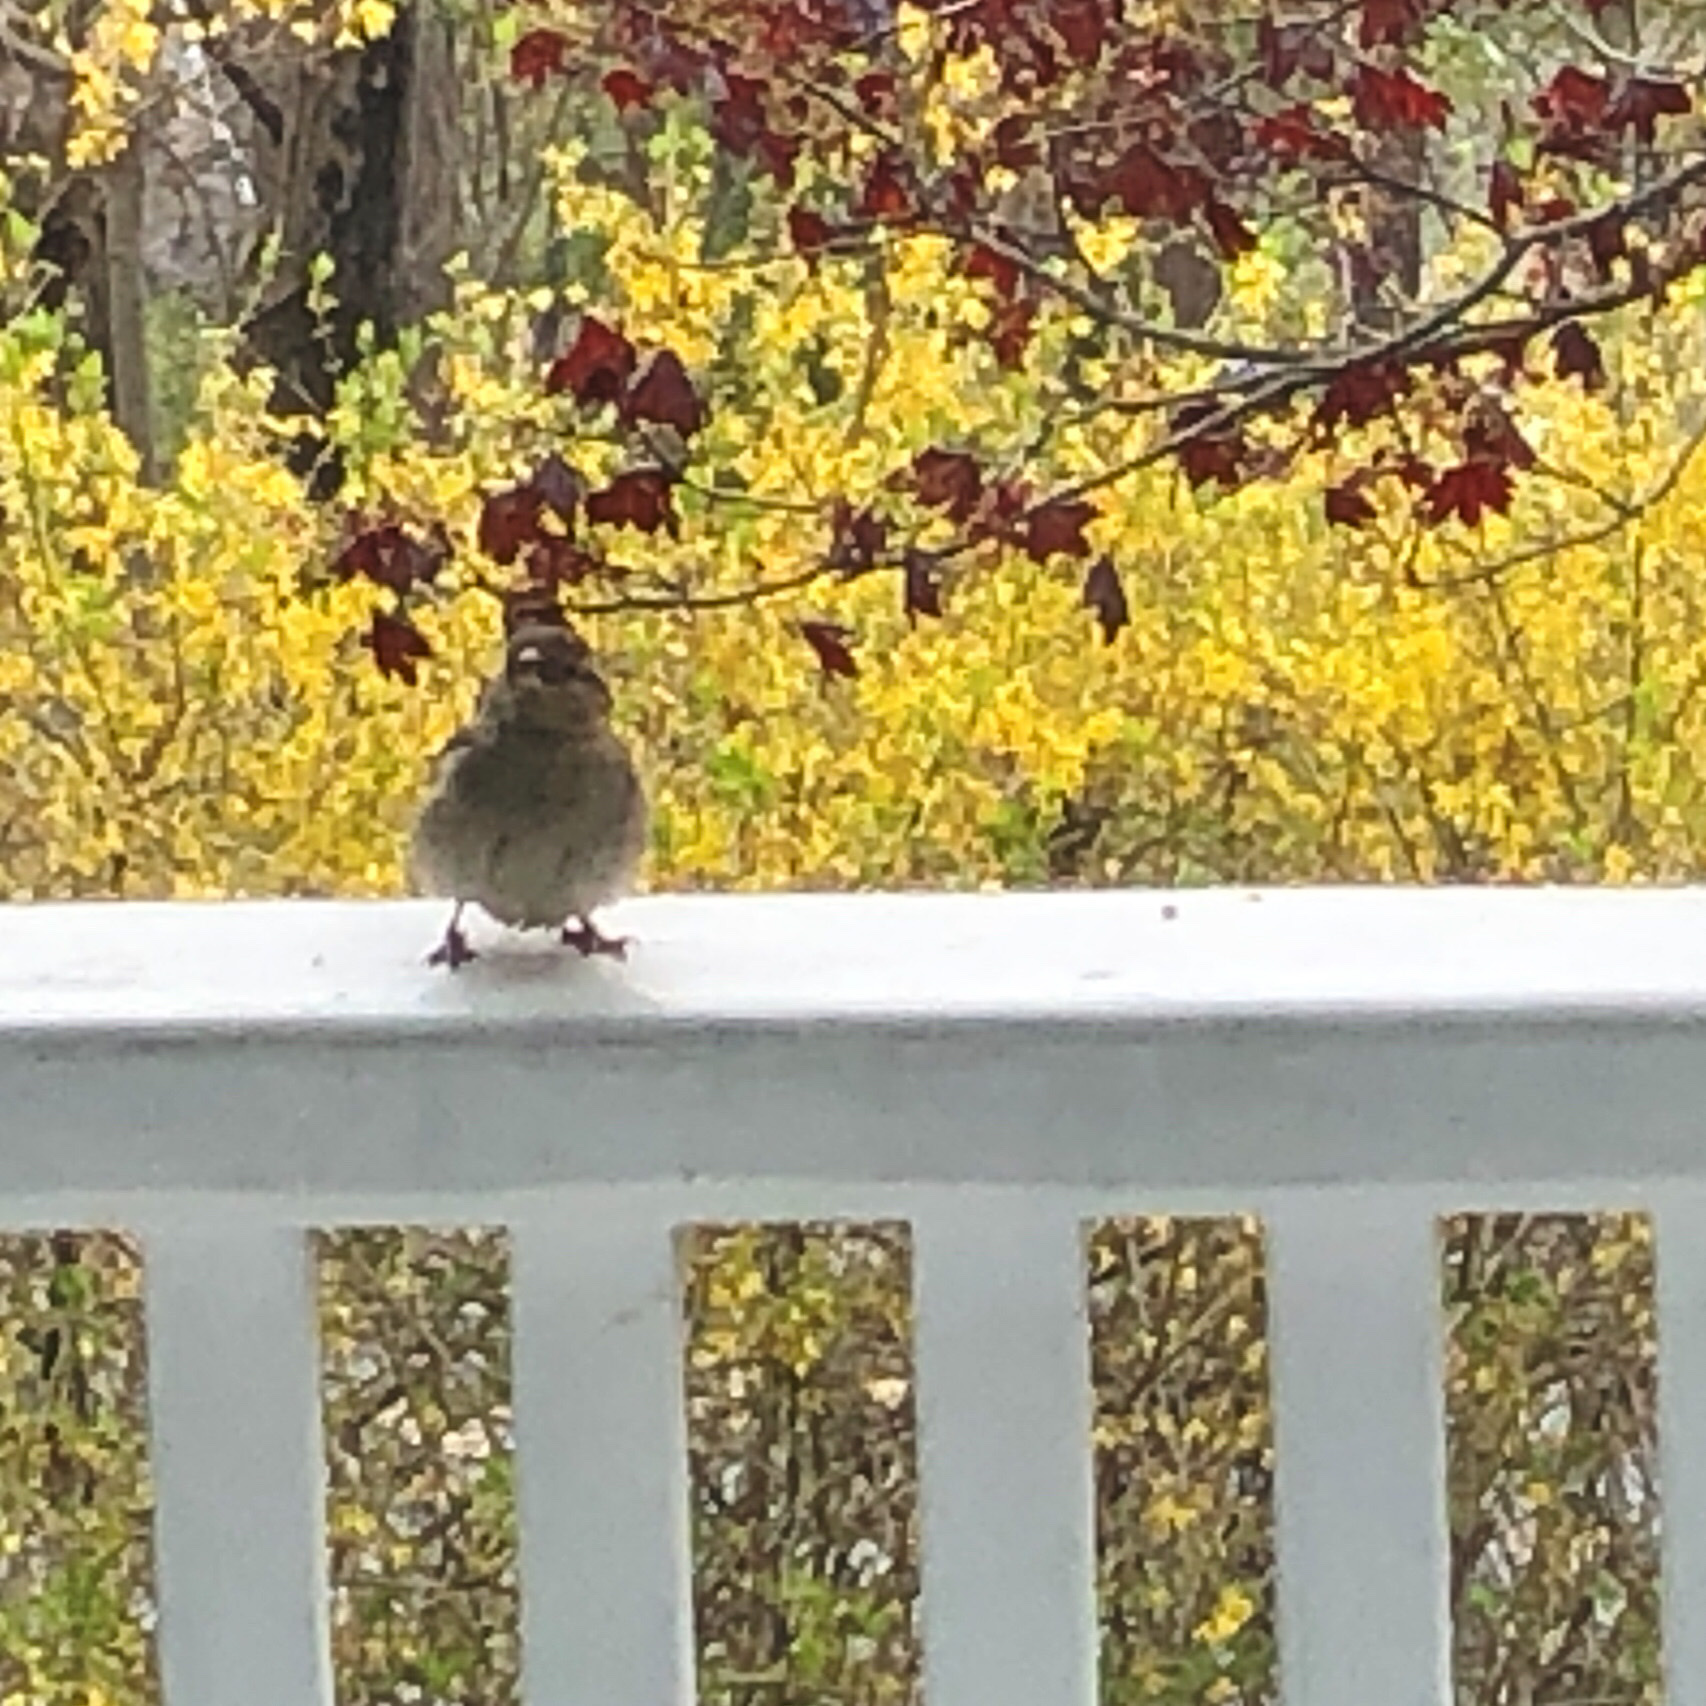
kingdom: Animalia
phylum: Chordata
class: Aves
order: Passeriformes
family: Passeridae
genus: Passer
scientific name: Passer domesticus
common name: House sparrow
